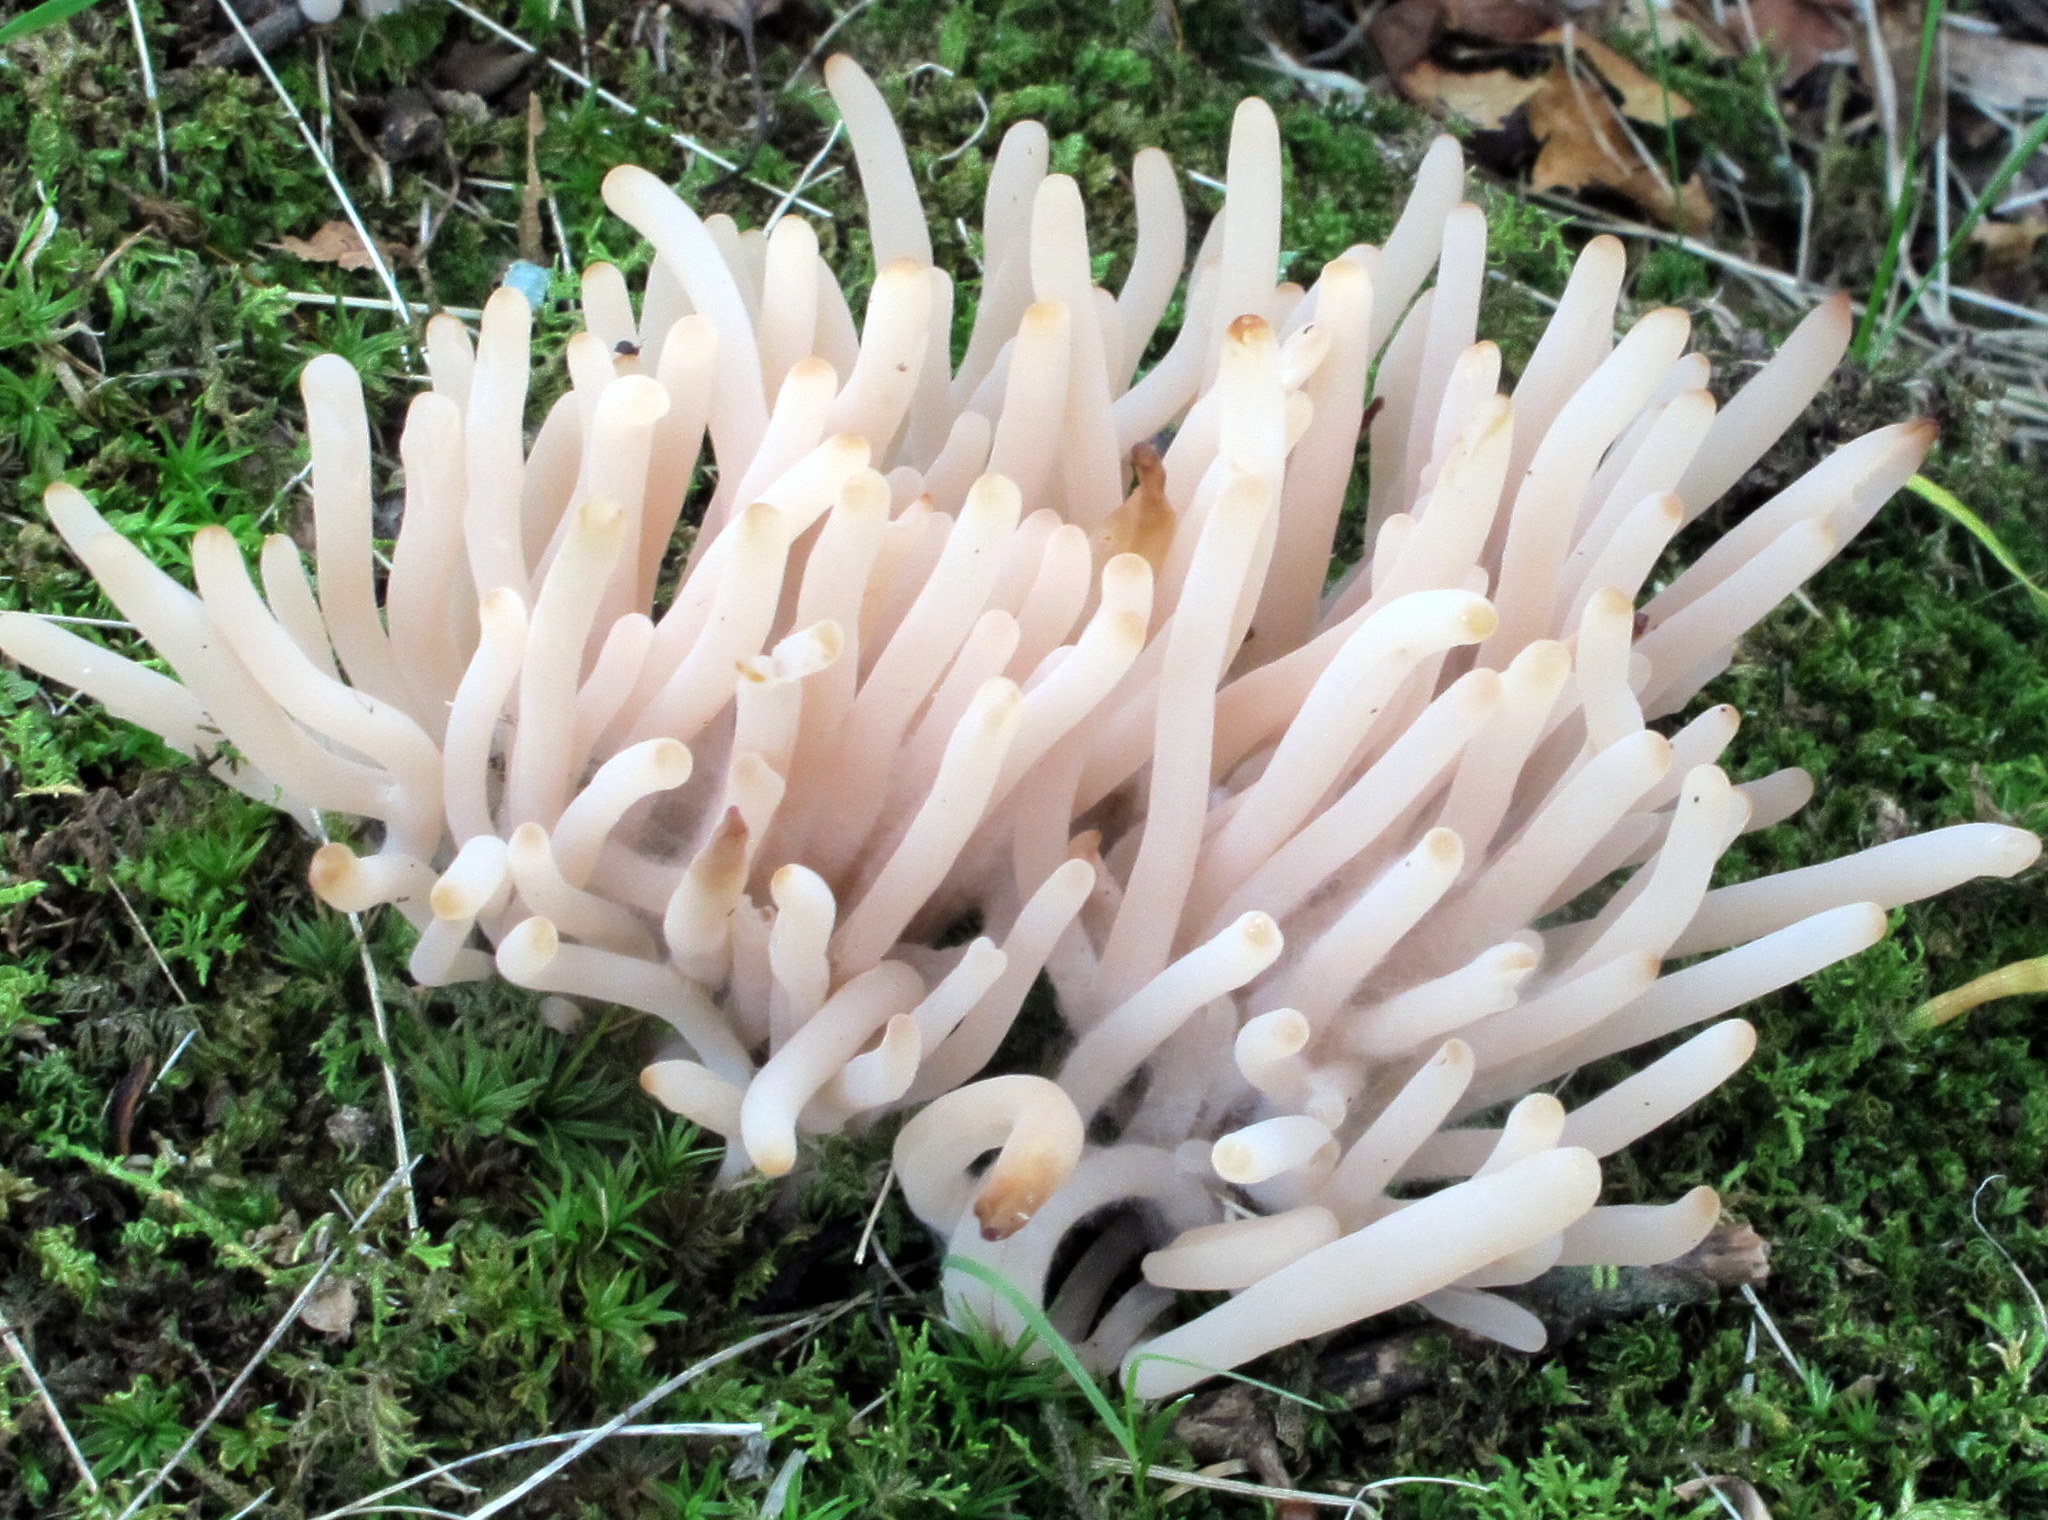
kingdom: Fungi
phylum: Basidiomycota
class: Agaricomycetes
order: Agaricales
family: Clavariaceae
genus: Clavaria
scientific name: Clavaria fumosa
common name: Smoky spindles
